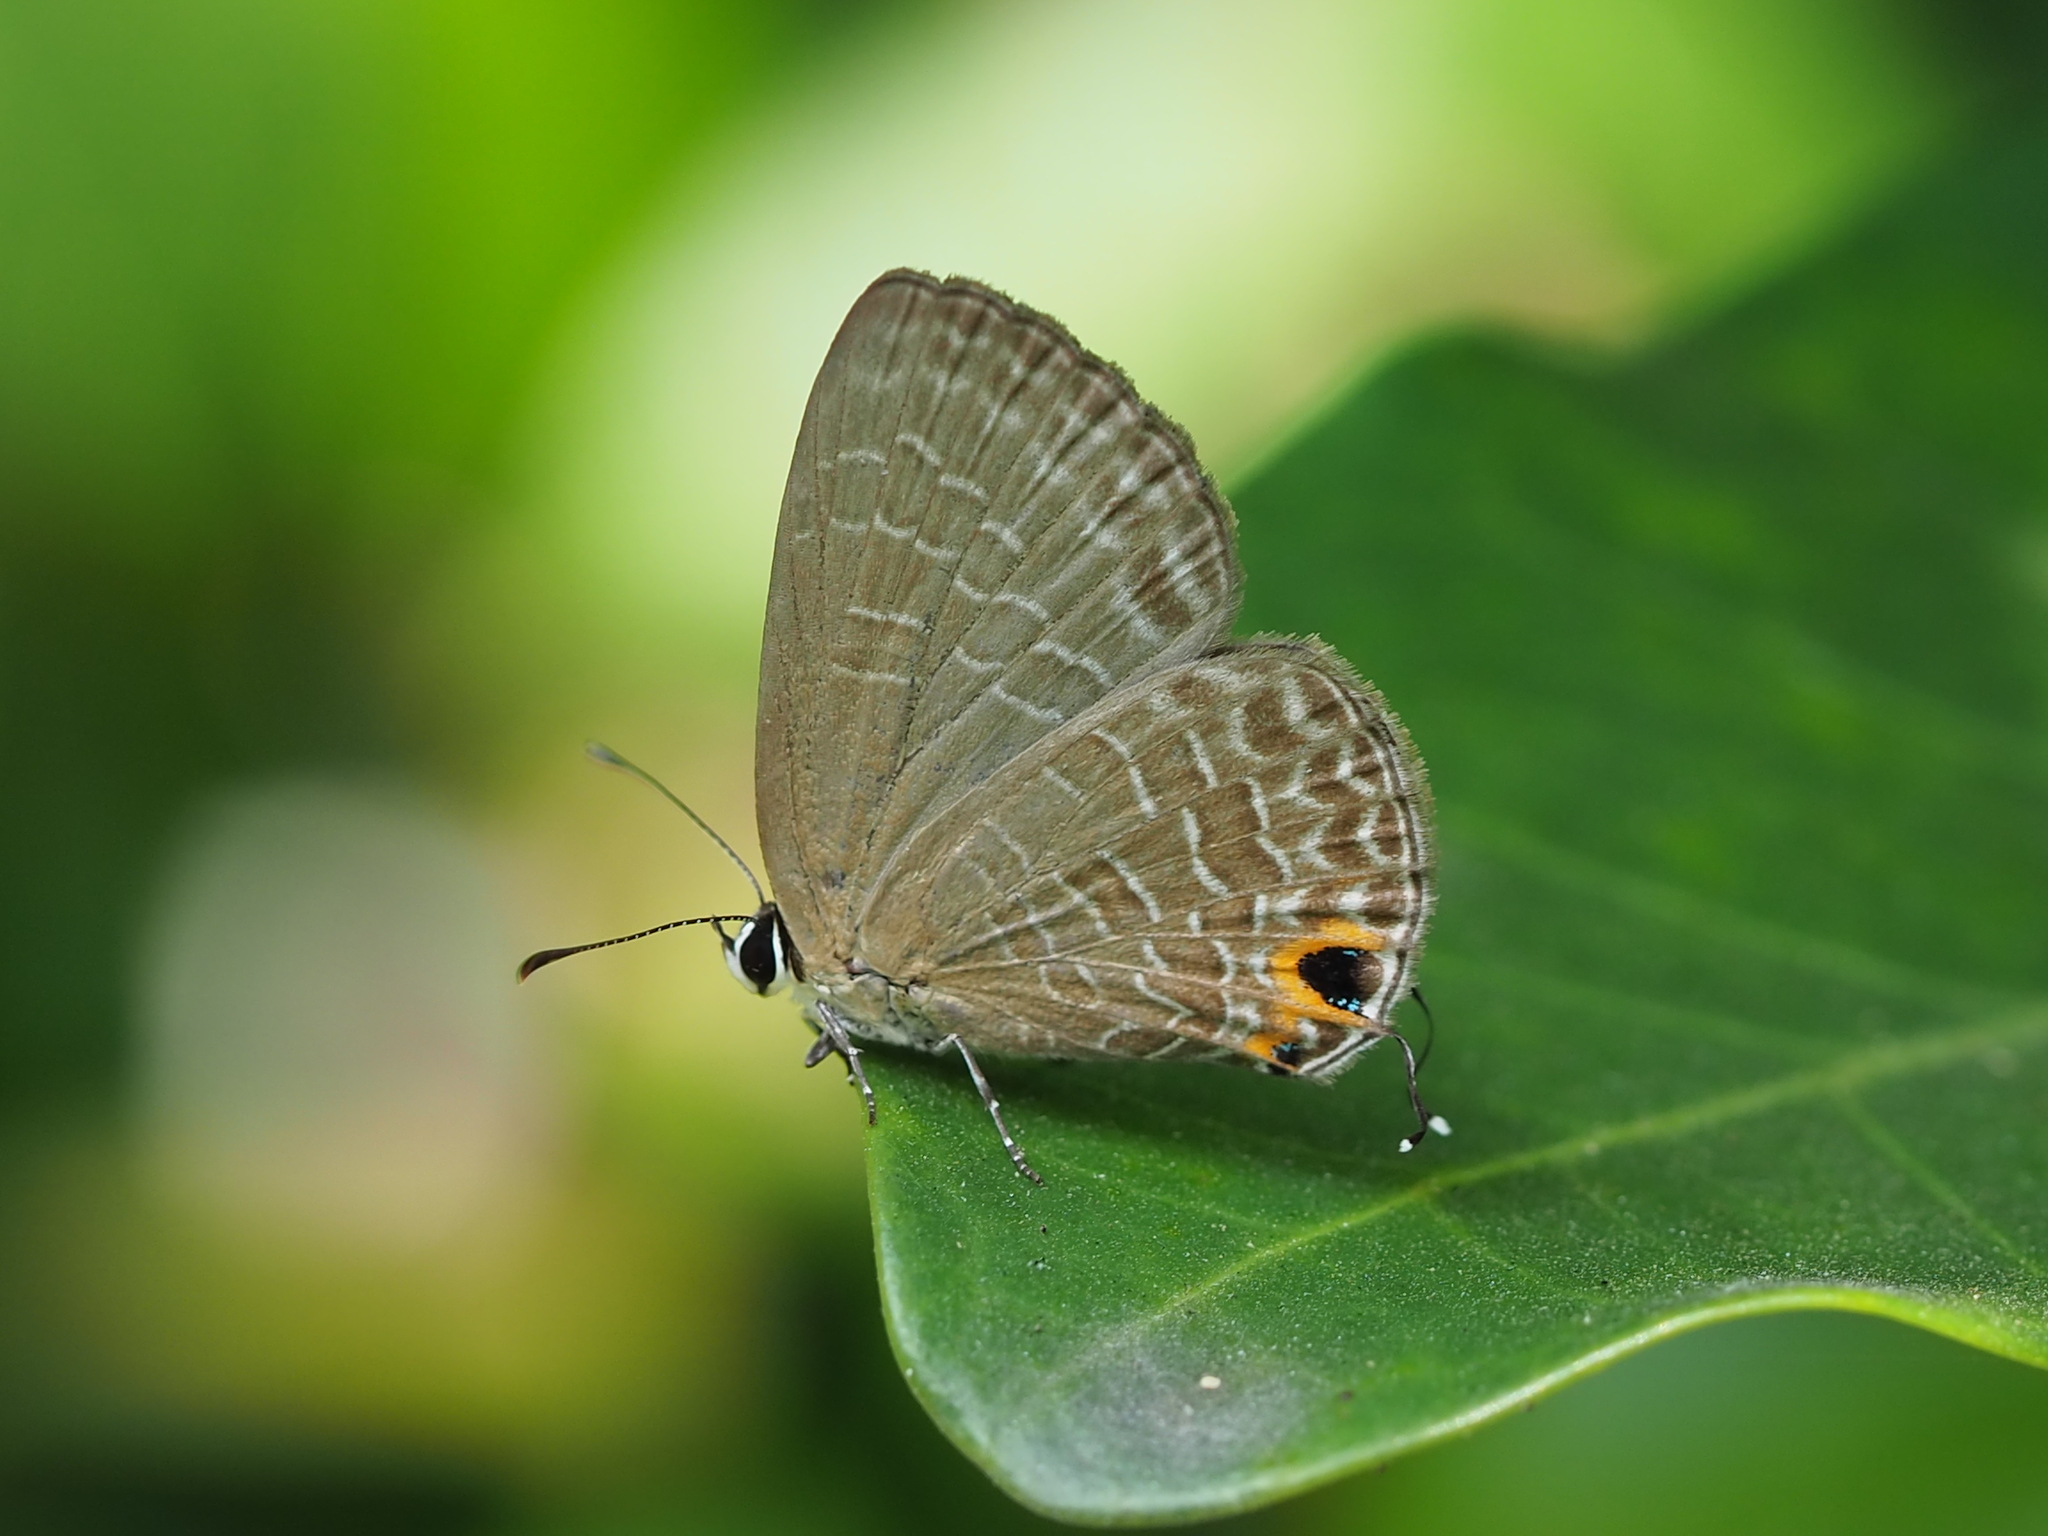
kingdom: Animalia
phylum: Arthropoda
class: Insecta
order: Lepidoptera
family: Lycaenidae
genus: Jamides
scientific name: Jamides bochus
